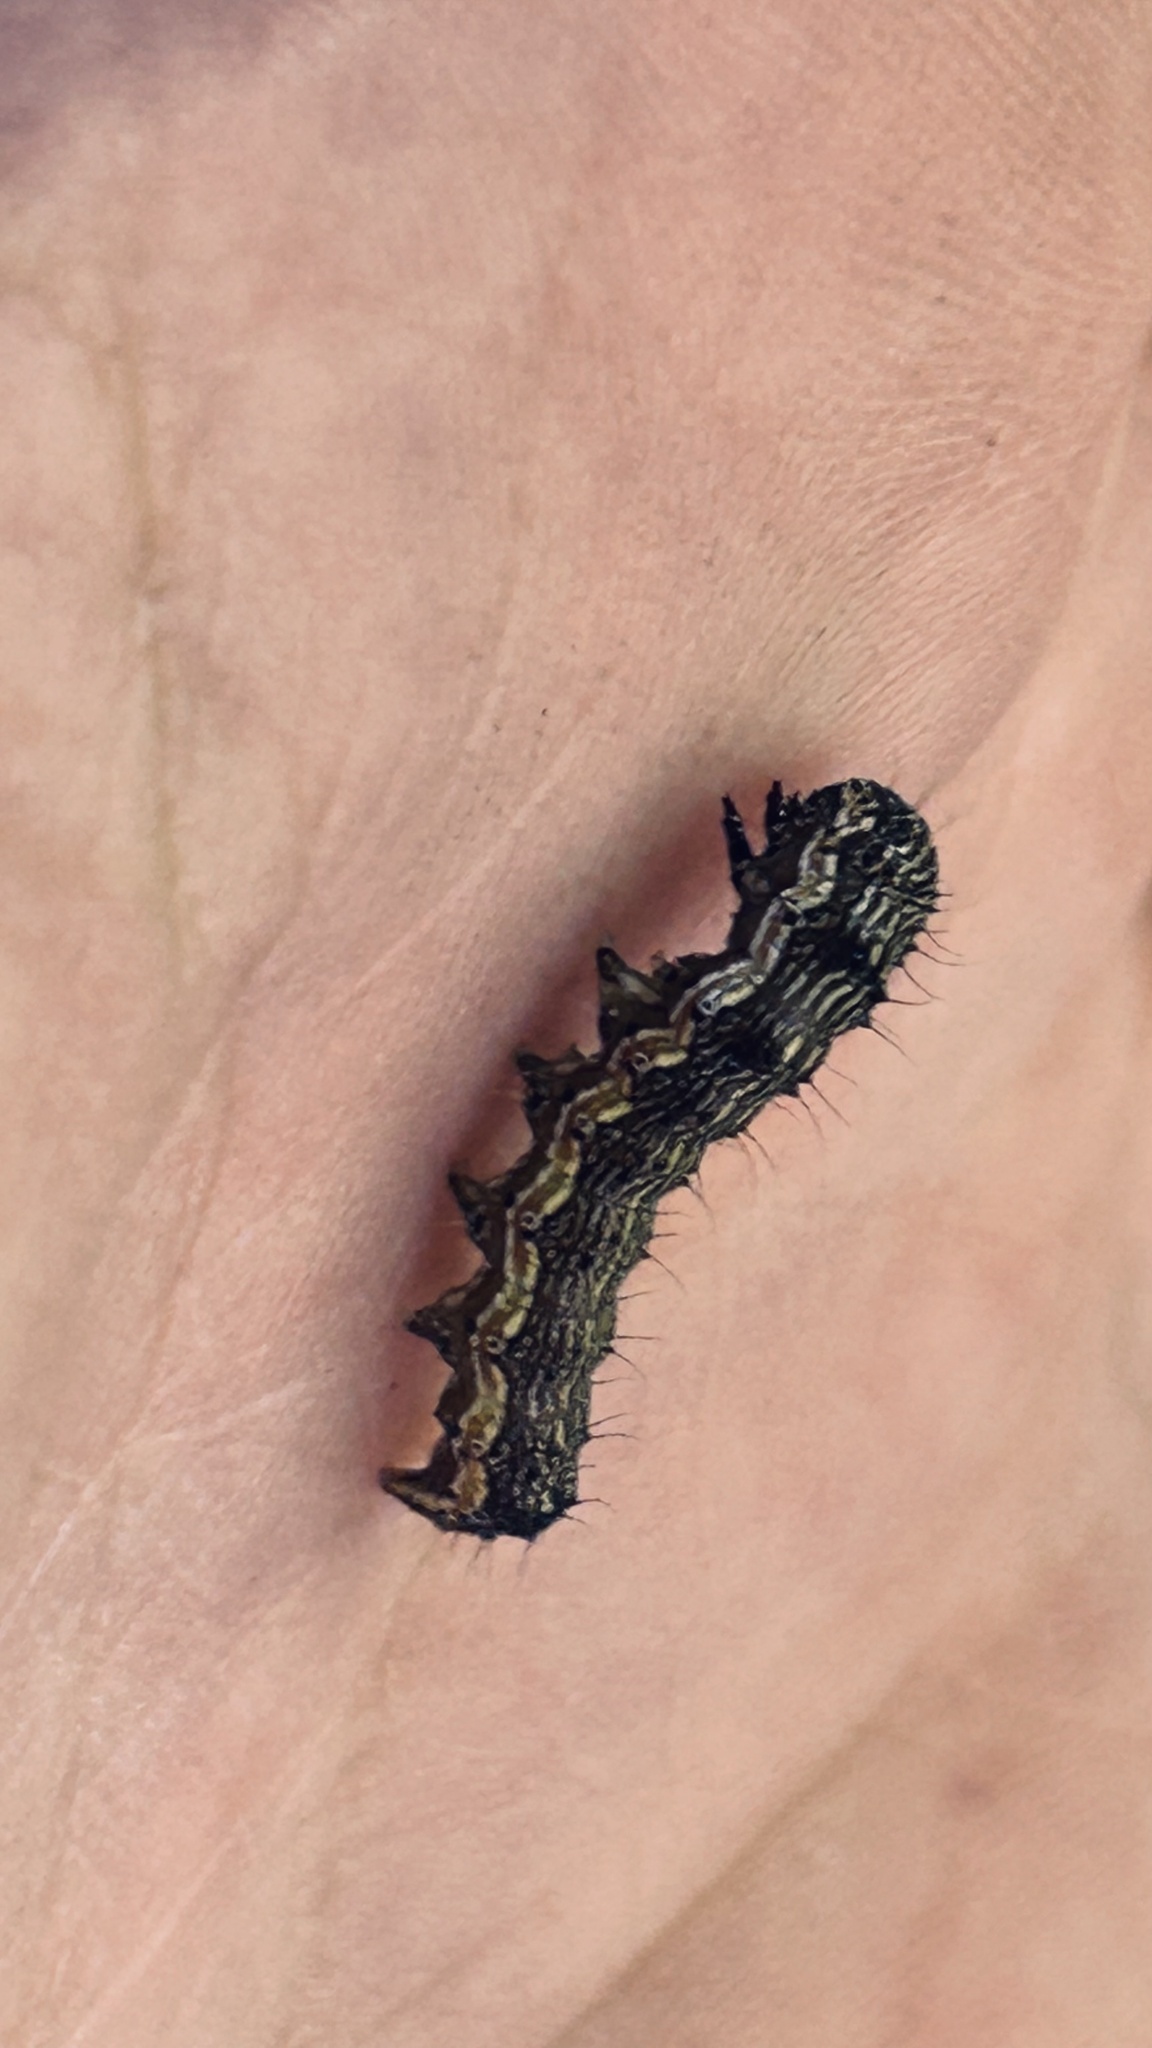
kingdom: Animalia
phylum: Arthropoda
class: Insecta
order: Lepidoptera
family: Noctuidae
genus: Helicoverpa
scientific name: Helicoverpa armigera
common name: Cotton bollworm
